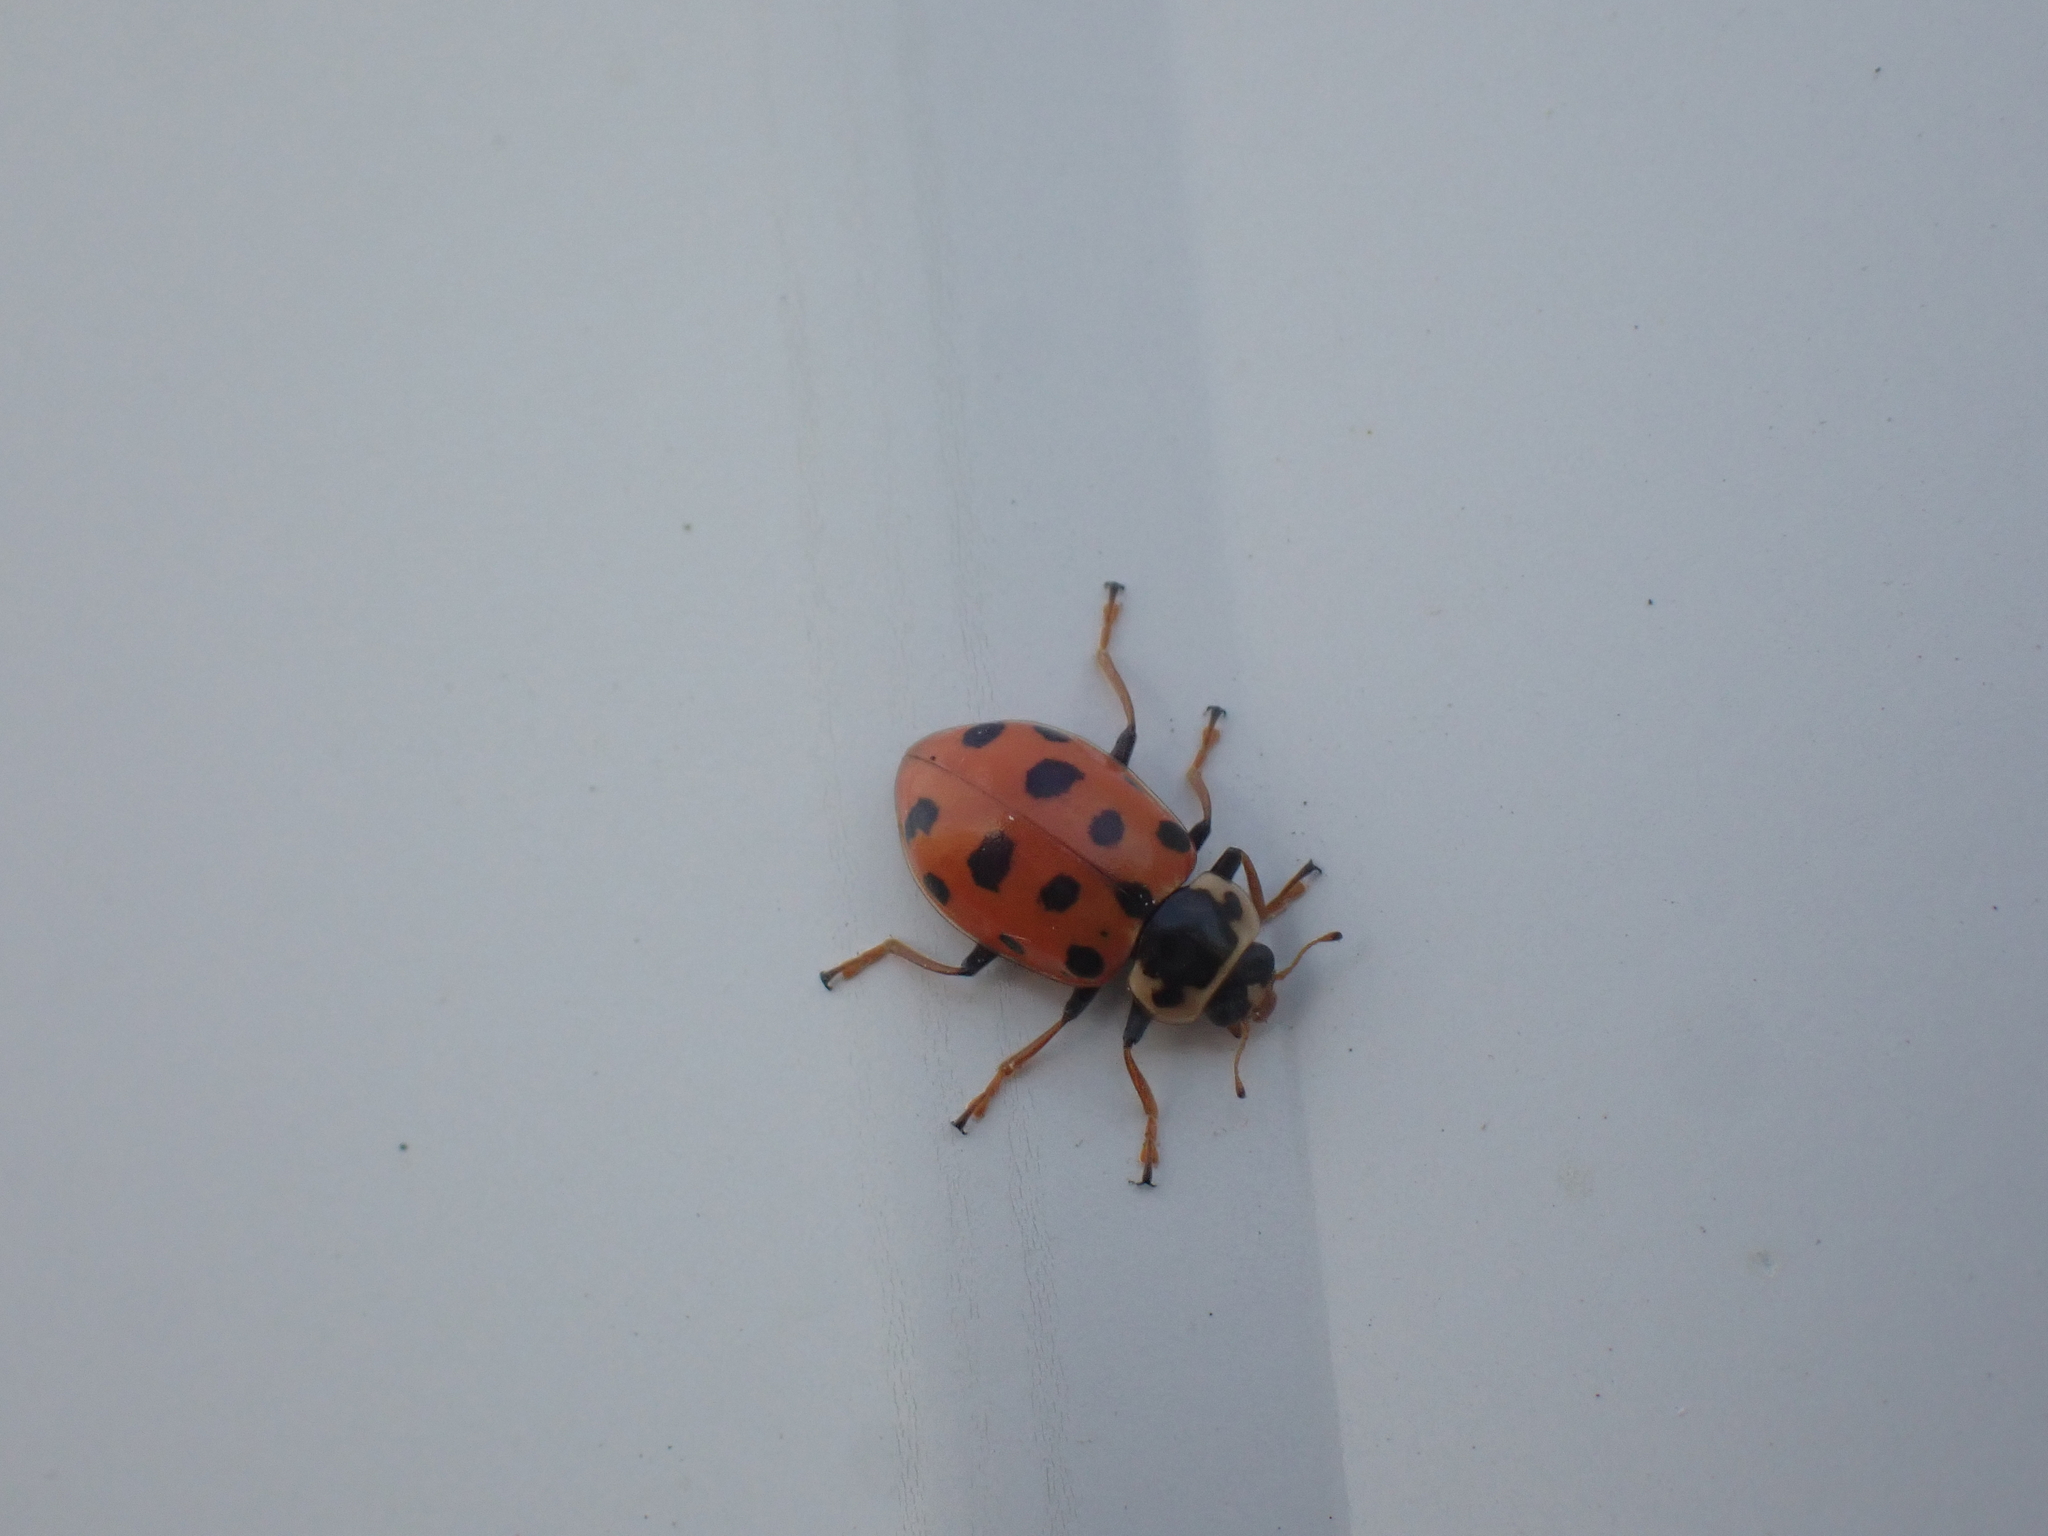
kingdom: Animalia
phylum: Arthropoda
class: Insecta
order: Coleoptera
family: Coccinellidae
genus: Hippodamia
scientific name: Hippodamia tredecimpunctata
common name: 13-spot ladybird
